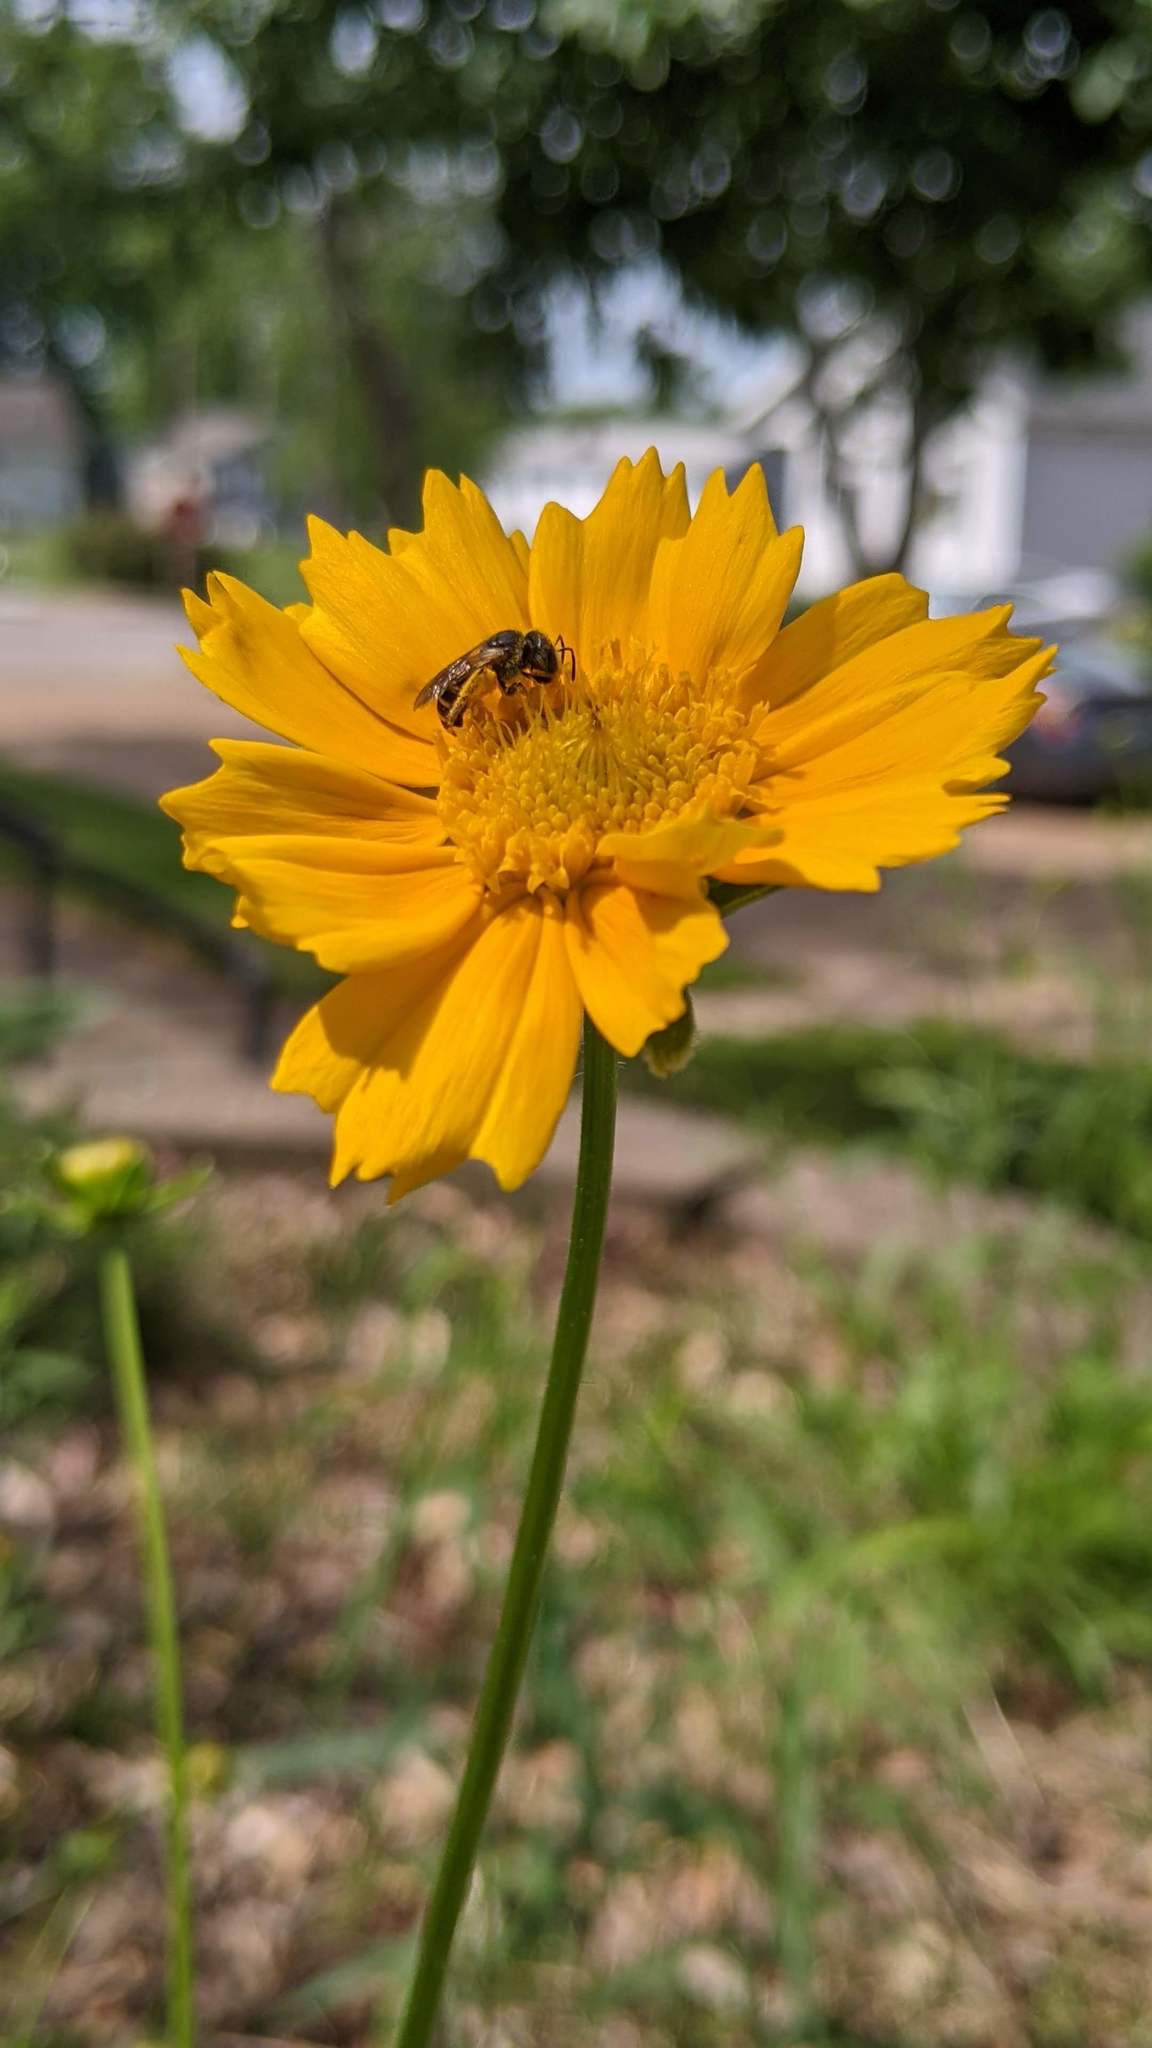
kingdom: Animalia
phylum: Arthropoda
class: Insecta
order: Hymenoptera
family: Halictidae
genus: Halictus
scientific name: Halictus ligatus
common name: Ligated furrow bee
